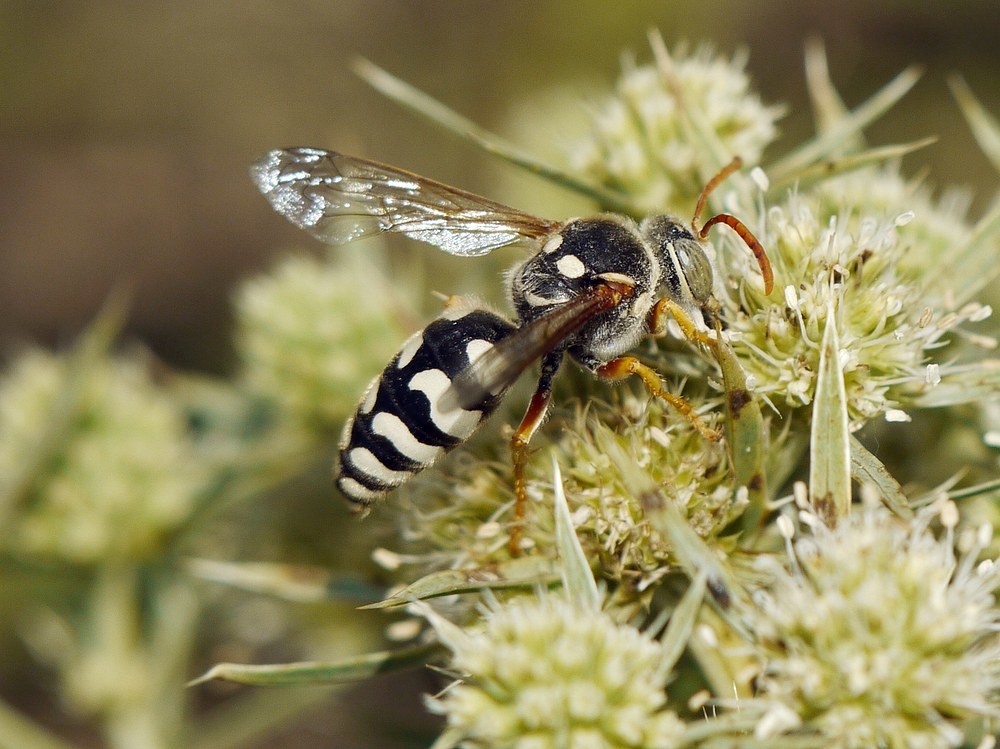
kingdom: Animalia
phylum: Arthropoda
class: Insecta
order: Hymenoptera
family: Crabronidae
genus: Stizus
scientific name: Stizus bipunctatus
